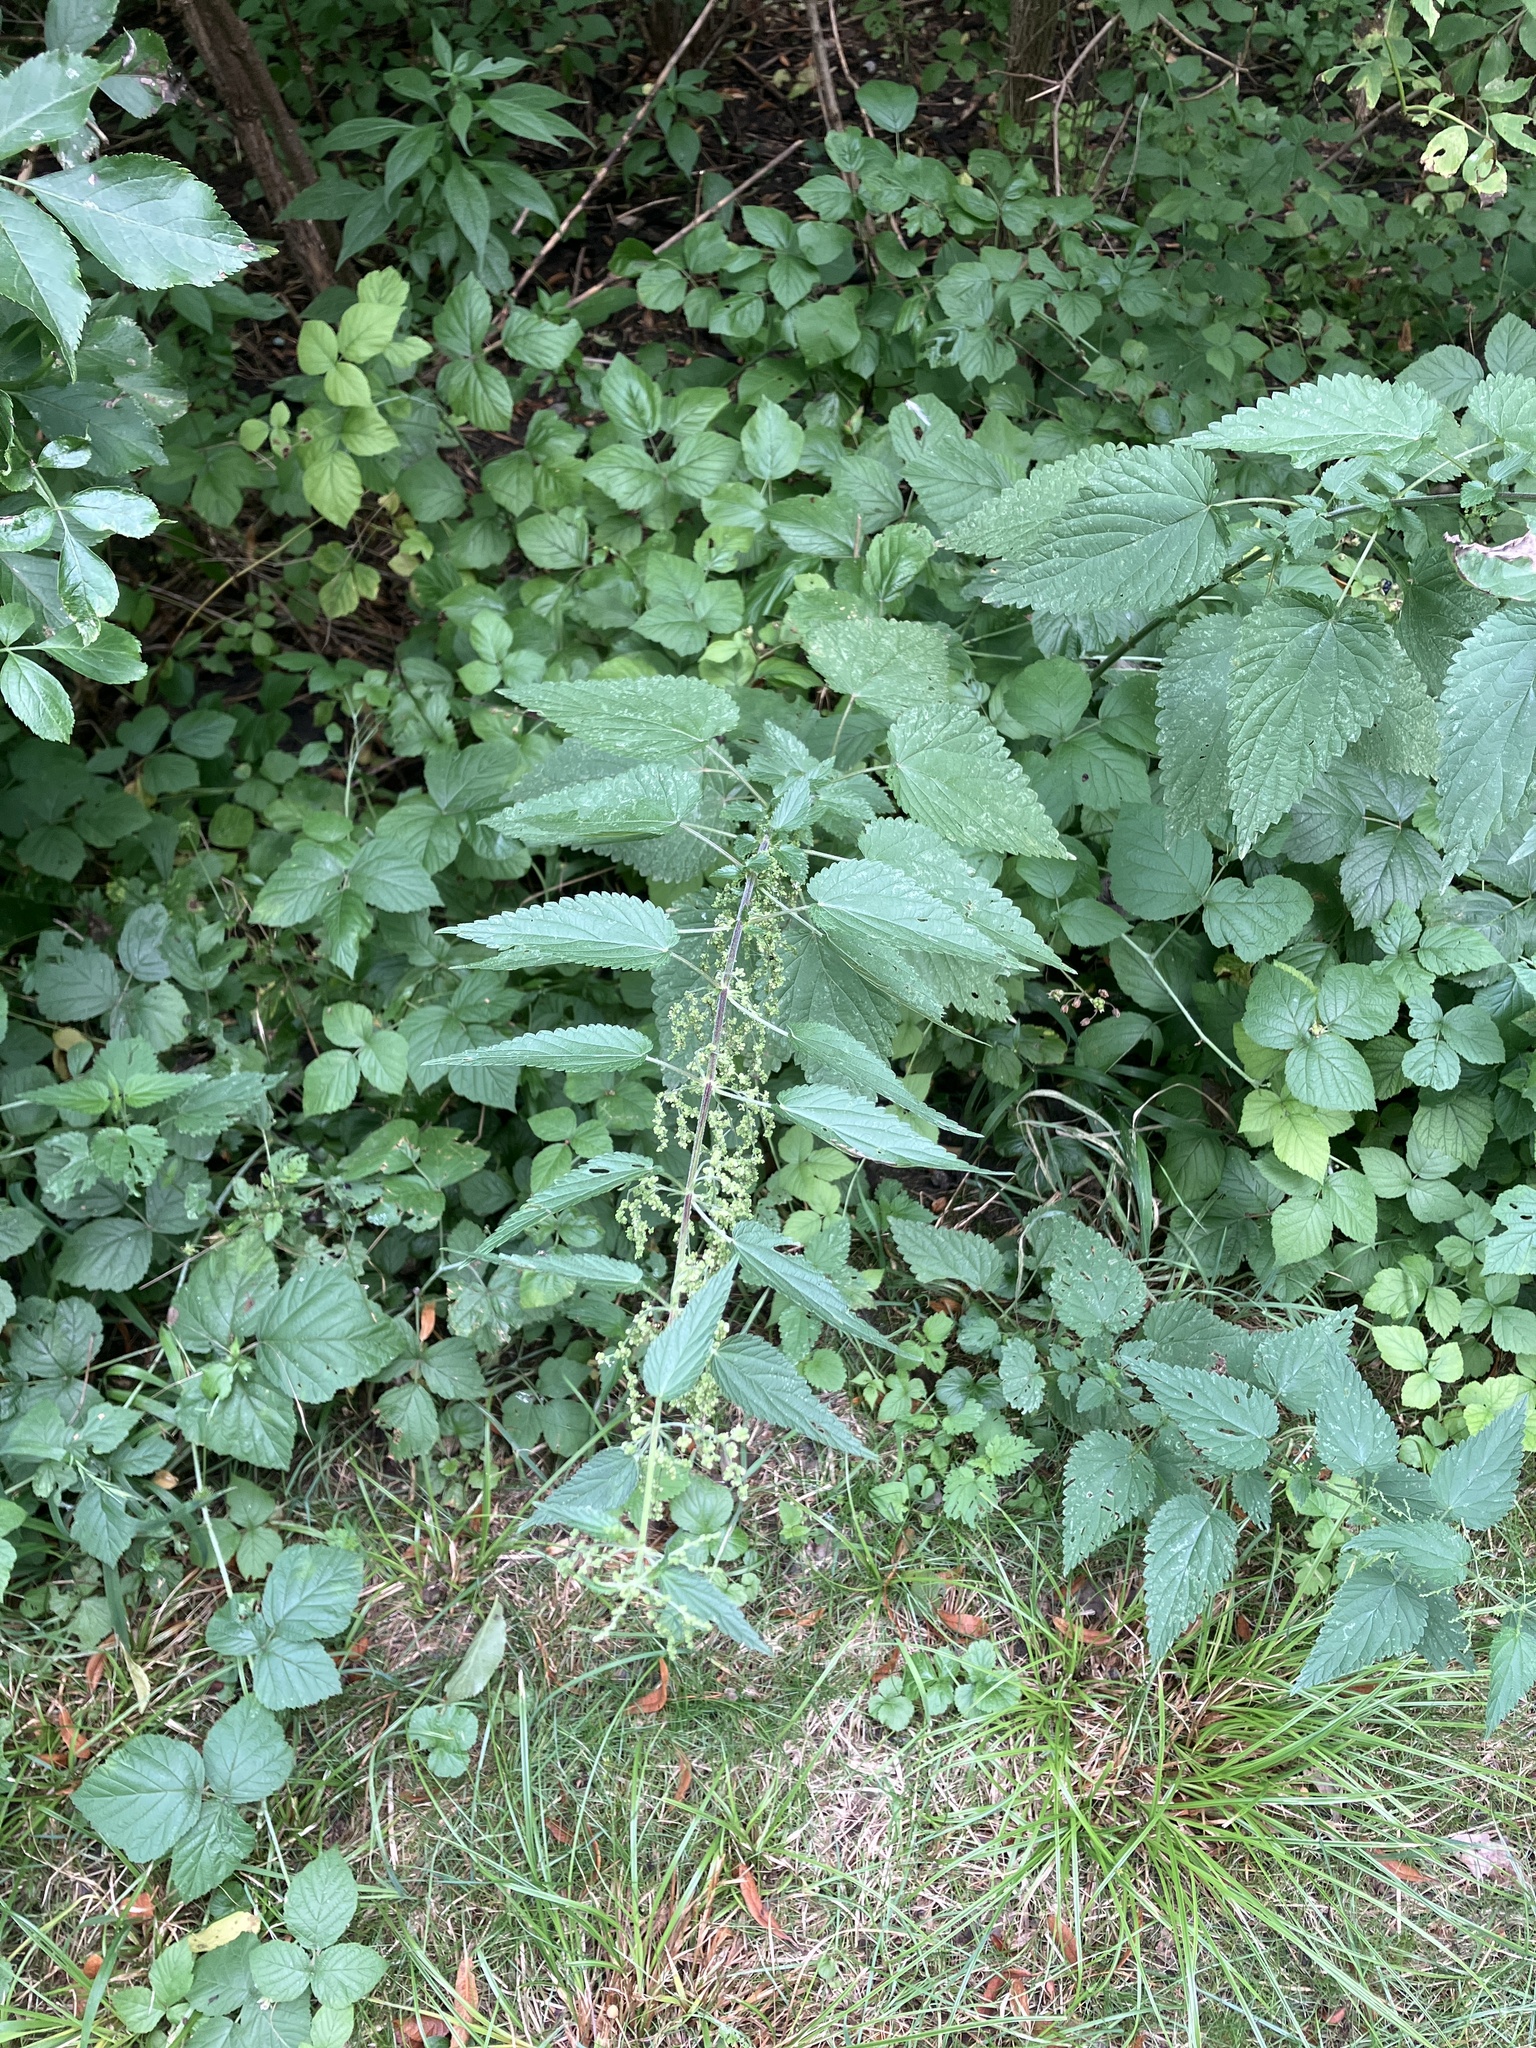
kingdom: Plantae
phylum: Tracheophyta
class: Magnoliopsida
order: Rosales
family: Urticaceae
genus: Urtica
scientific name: Urtica dioica
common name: Common nettle
